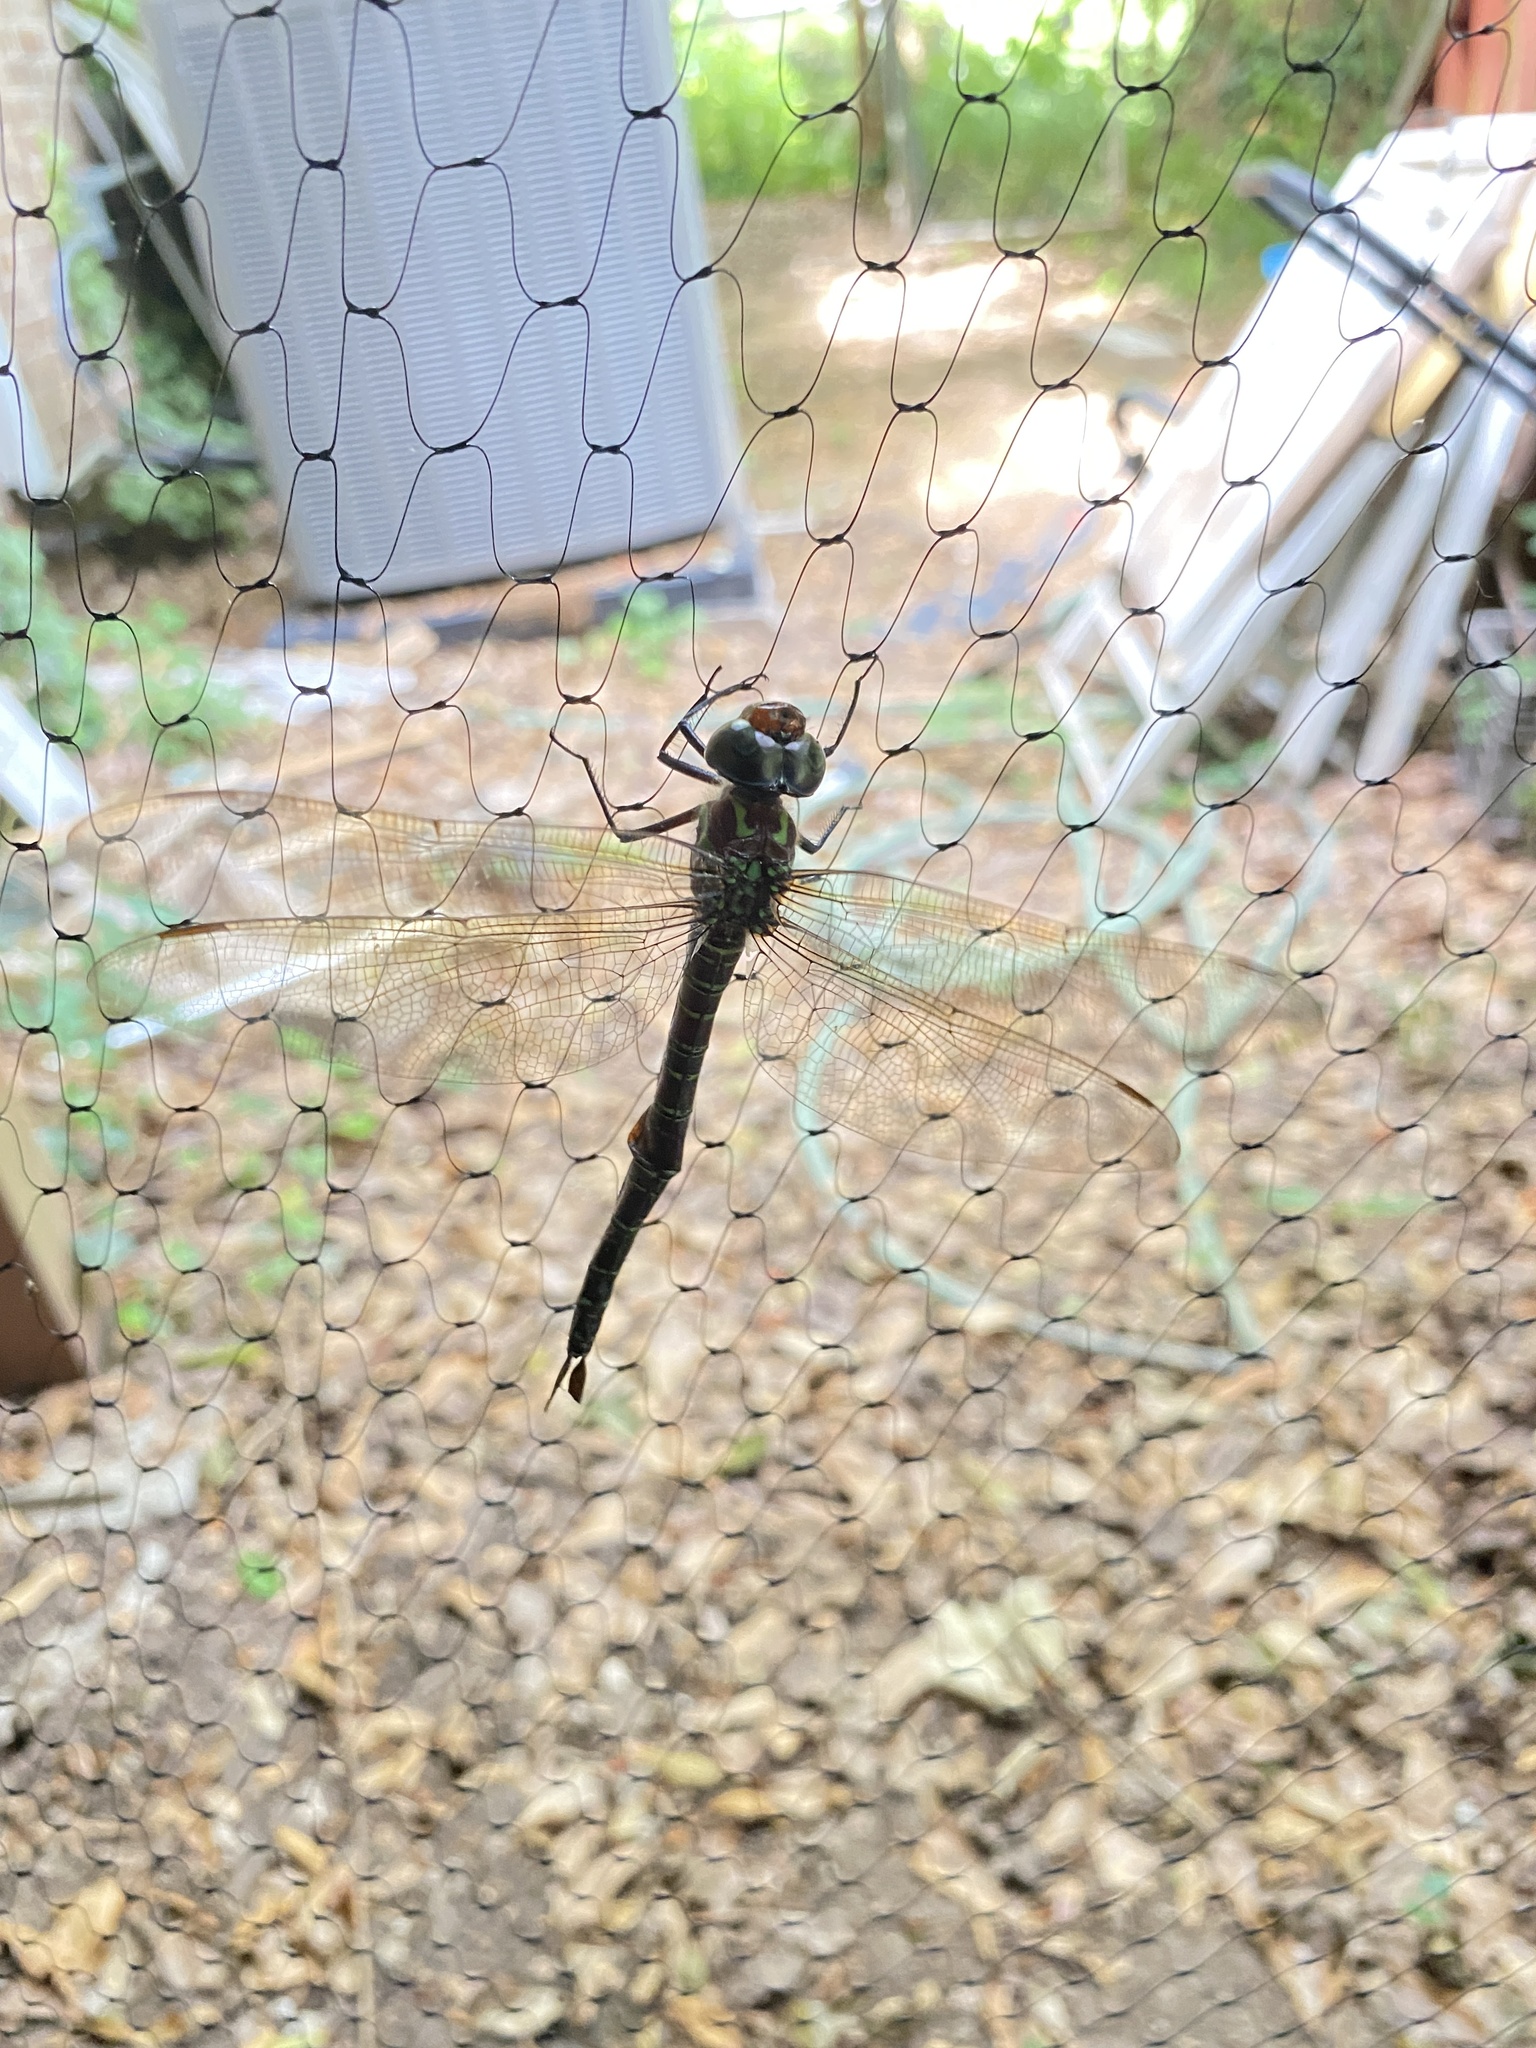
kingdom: Animalia
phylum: Arthropoda
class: Insecta
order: Odonata
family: Aeshnidae
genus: Epiaeschna
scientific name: Epiaeschna heros
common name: Swamp darner
